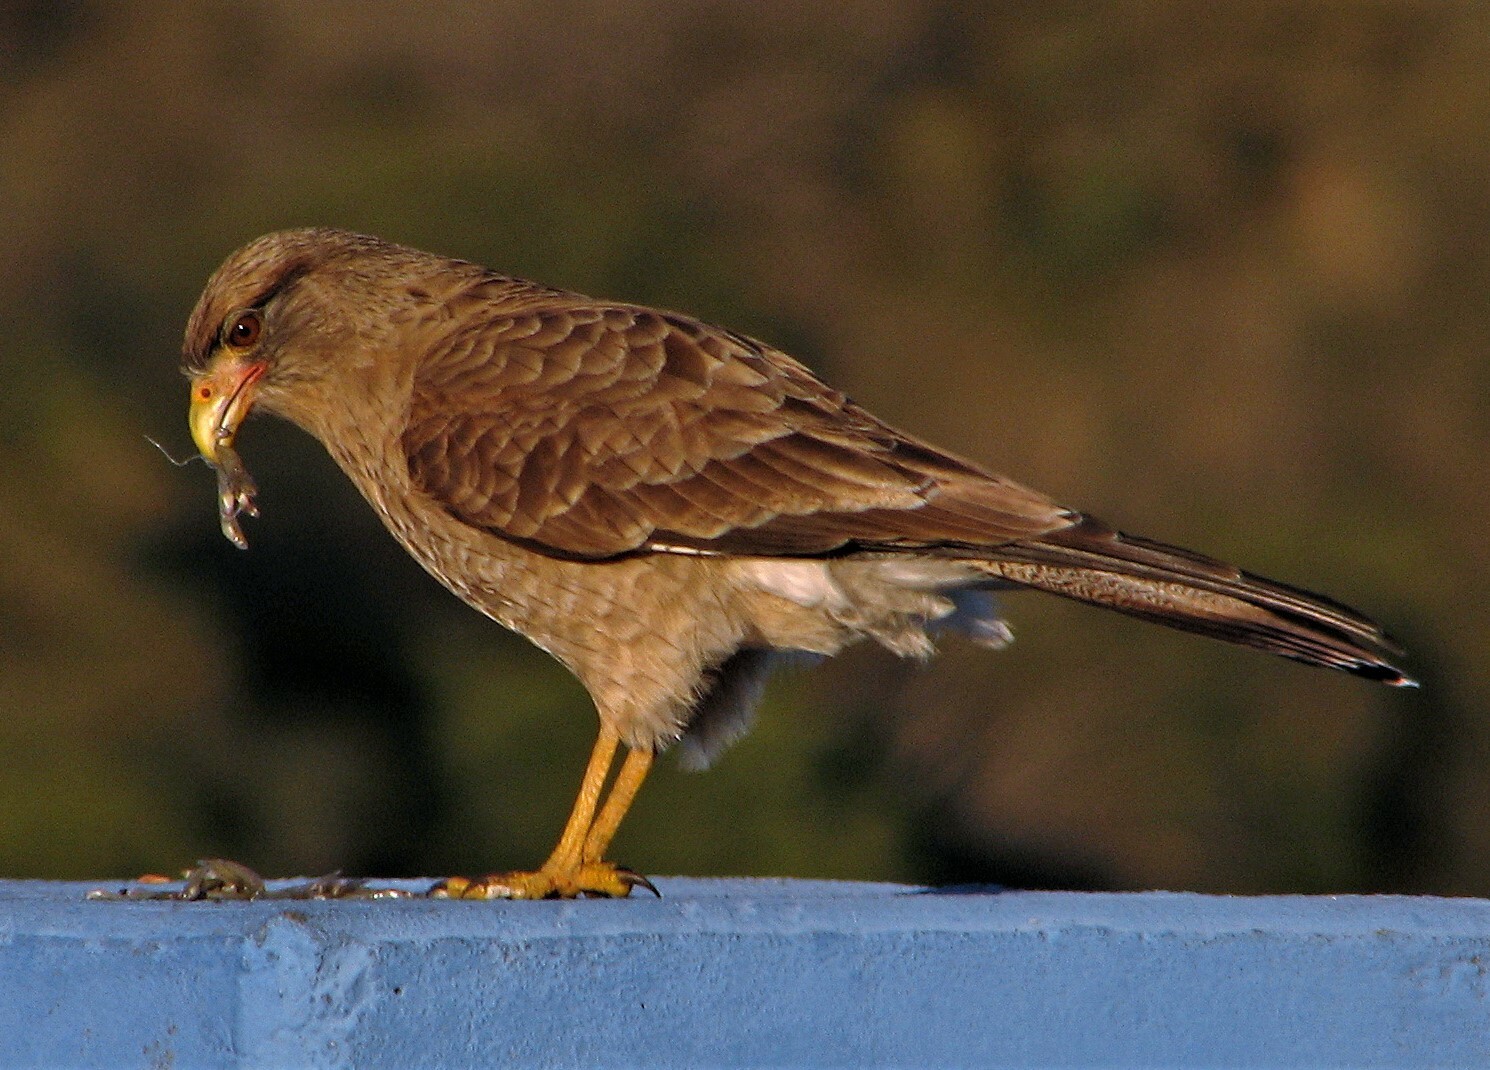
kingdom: Animalia
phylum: Chordata
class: Aves
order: Falconiformes
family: Falconidae
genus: Daptrius
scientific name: Daptrius
